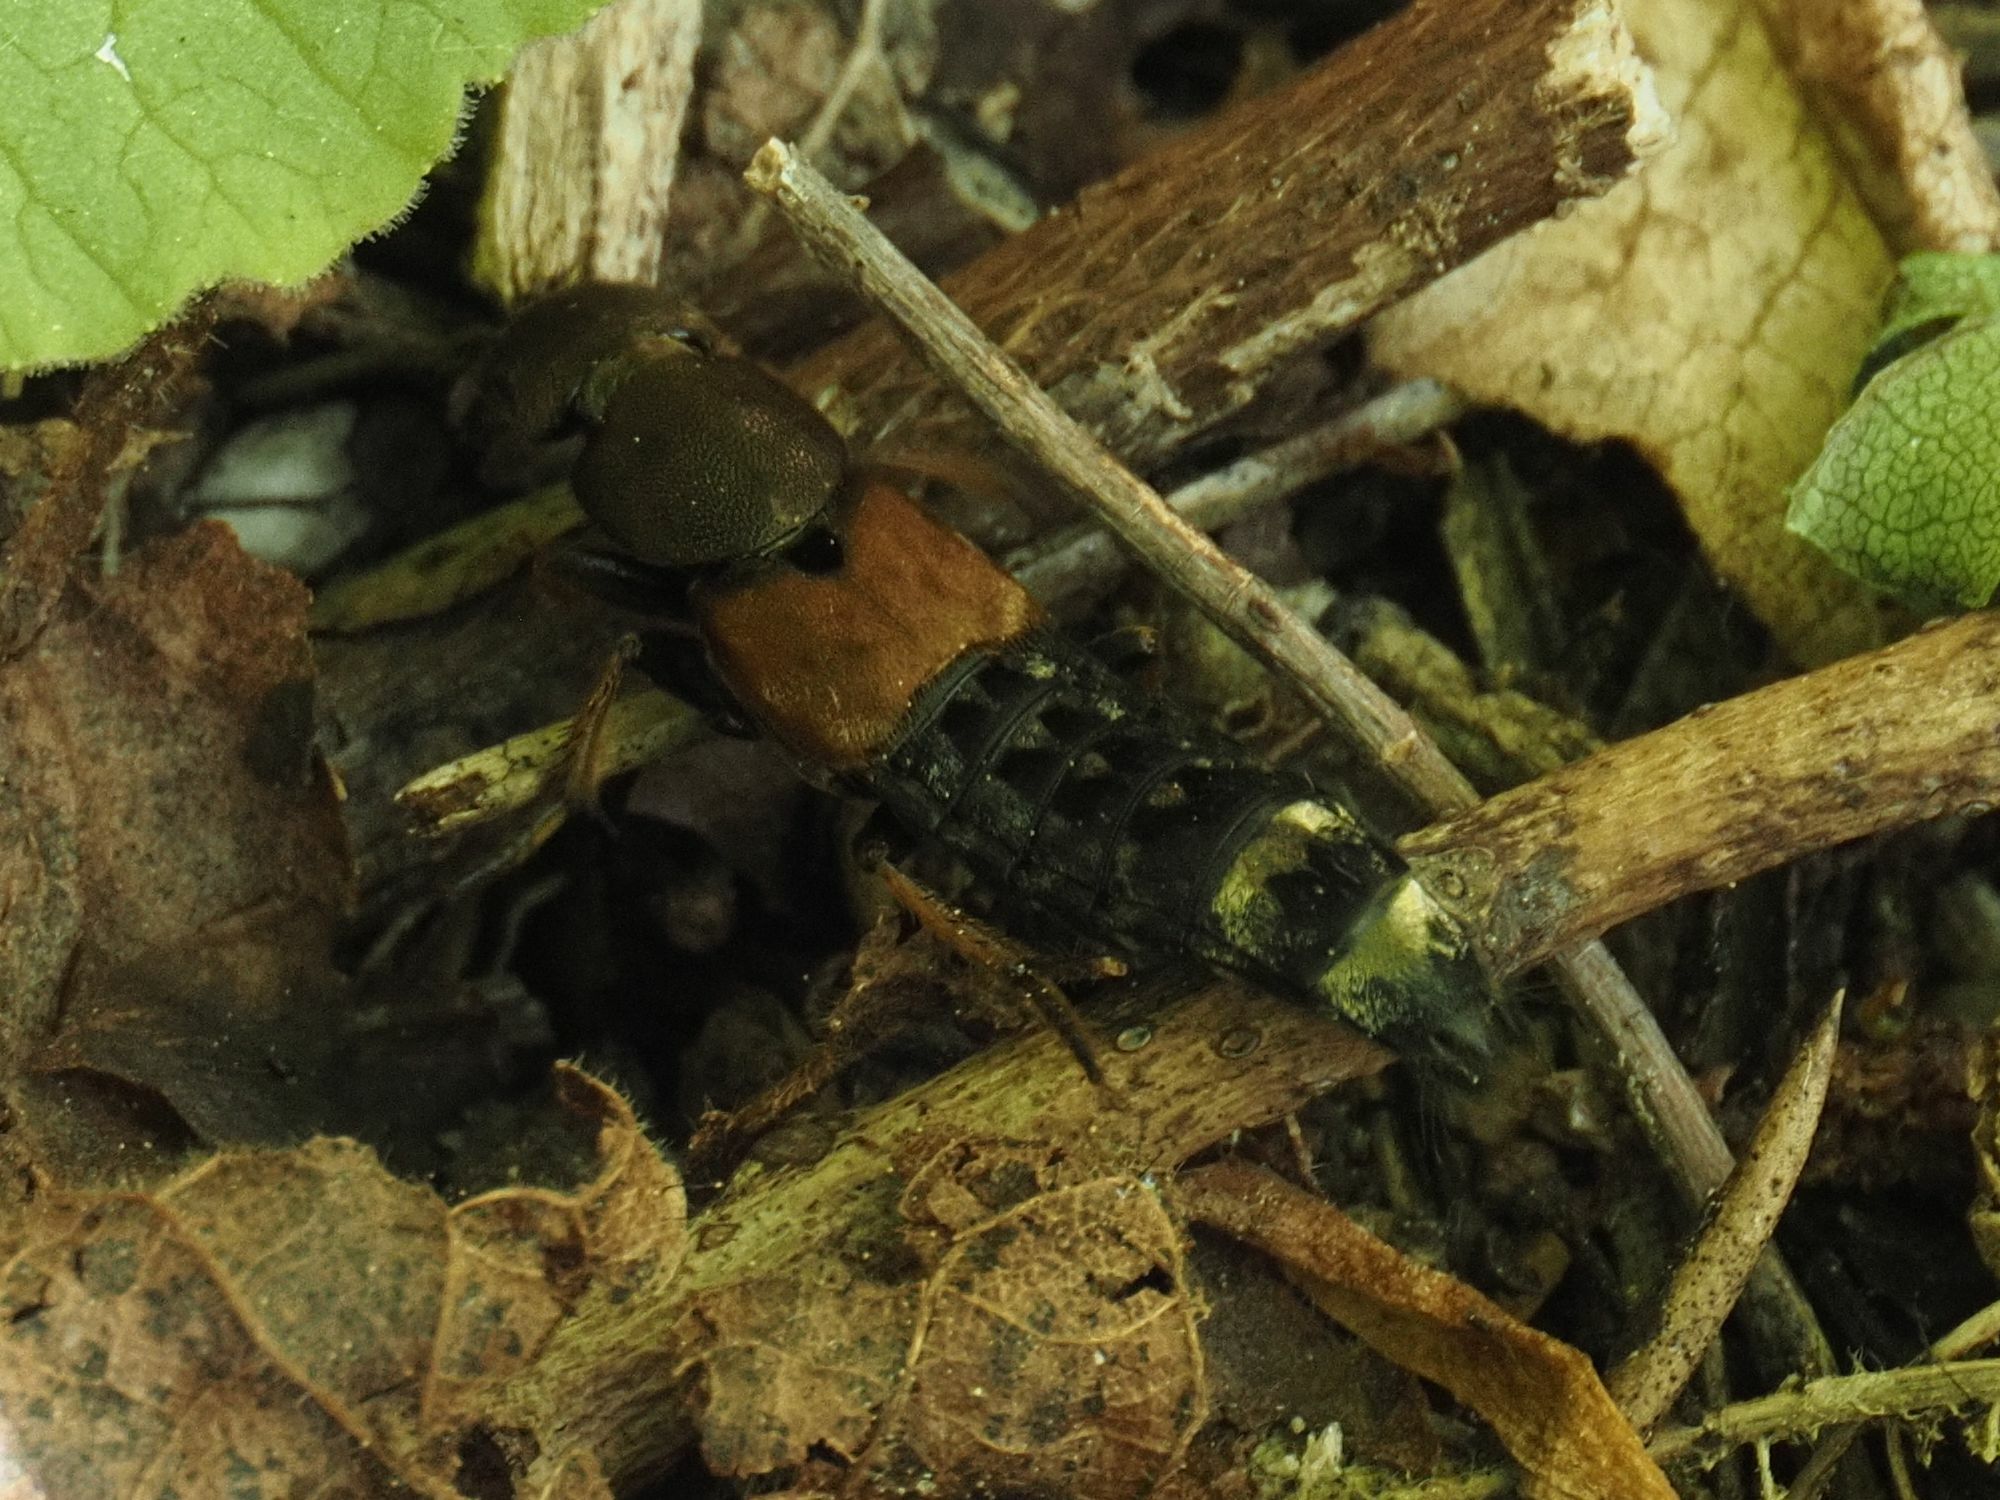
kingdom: Animalia
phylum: Arthropoda
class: Insecta
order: Coleoptera
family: Staphylinidae
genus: Platydracus
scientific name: Platydracus chalcocephalus
